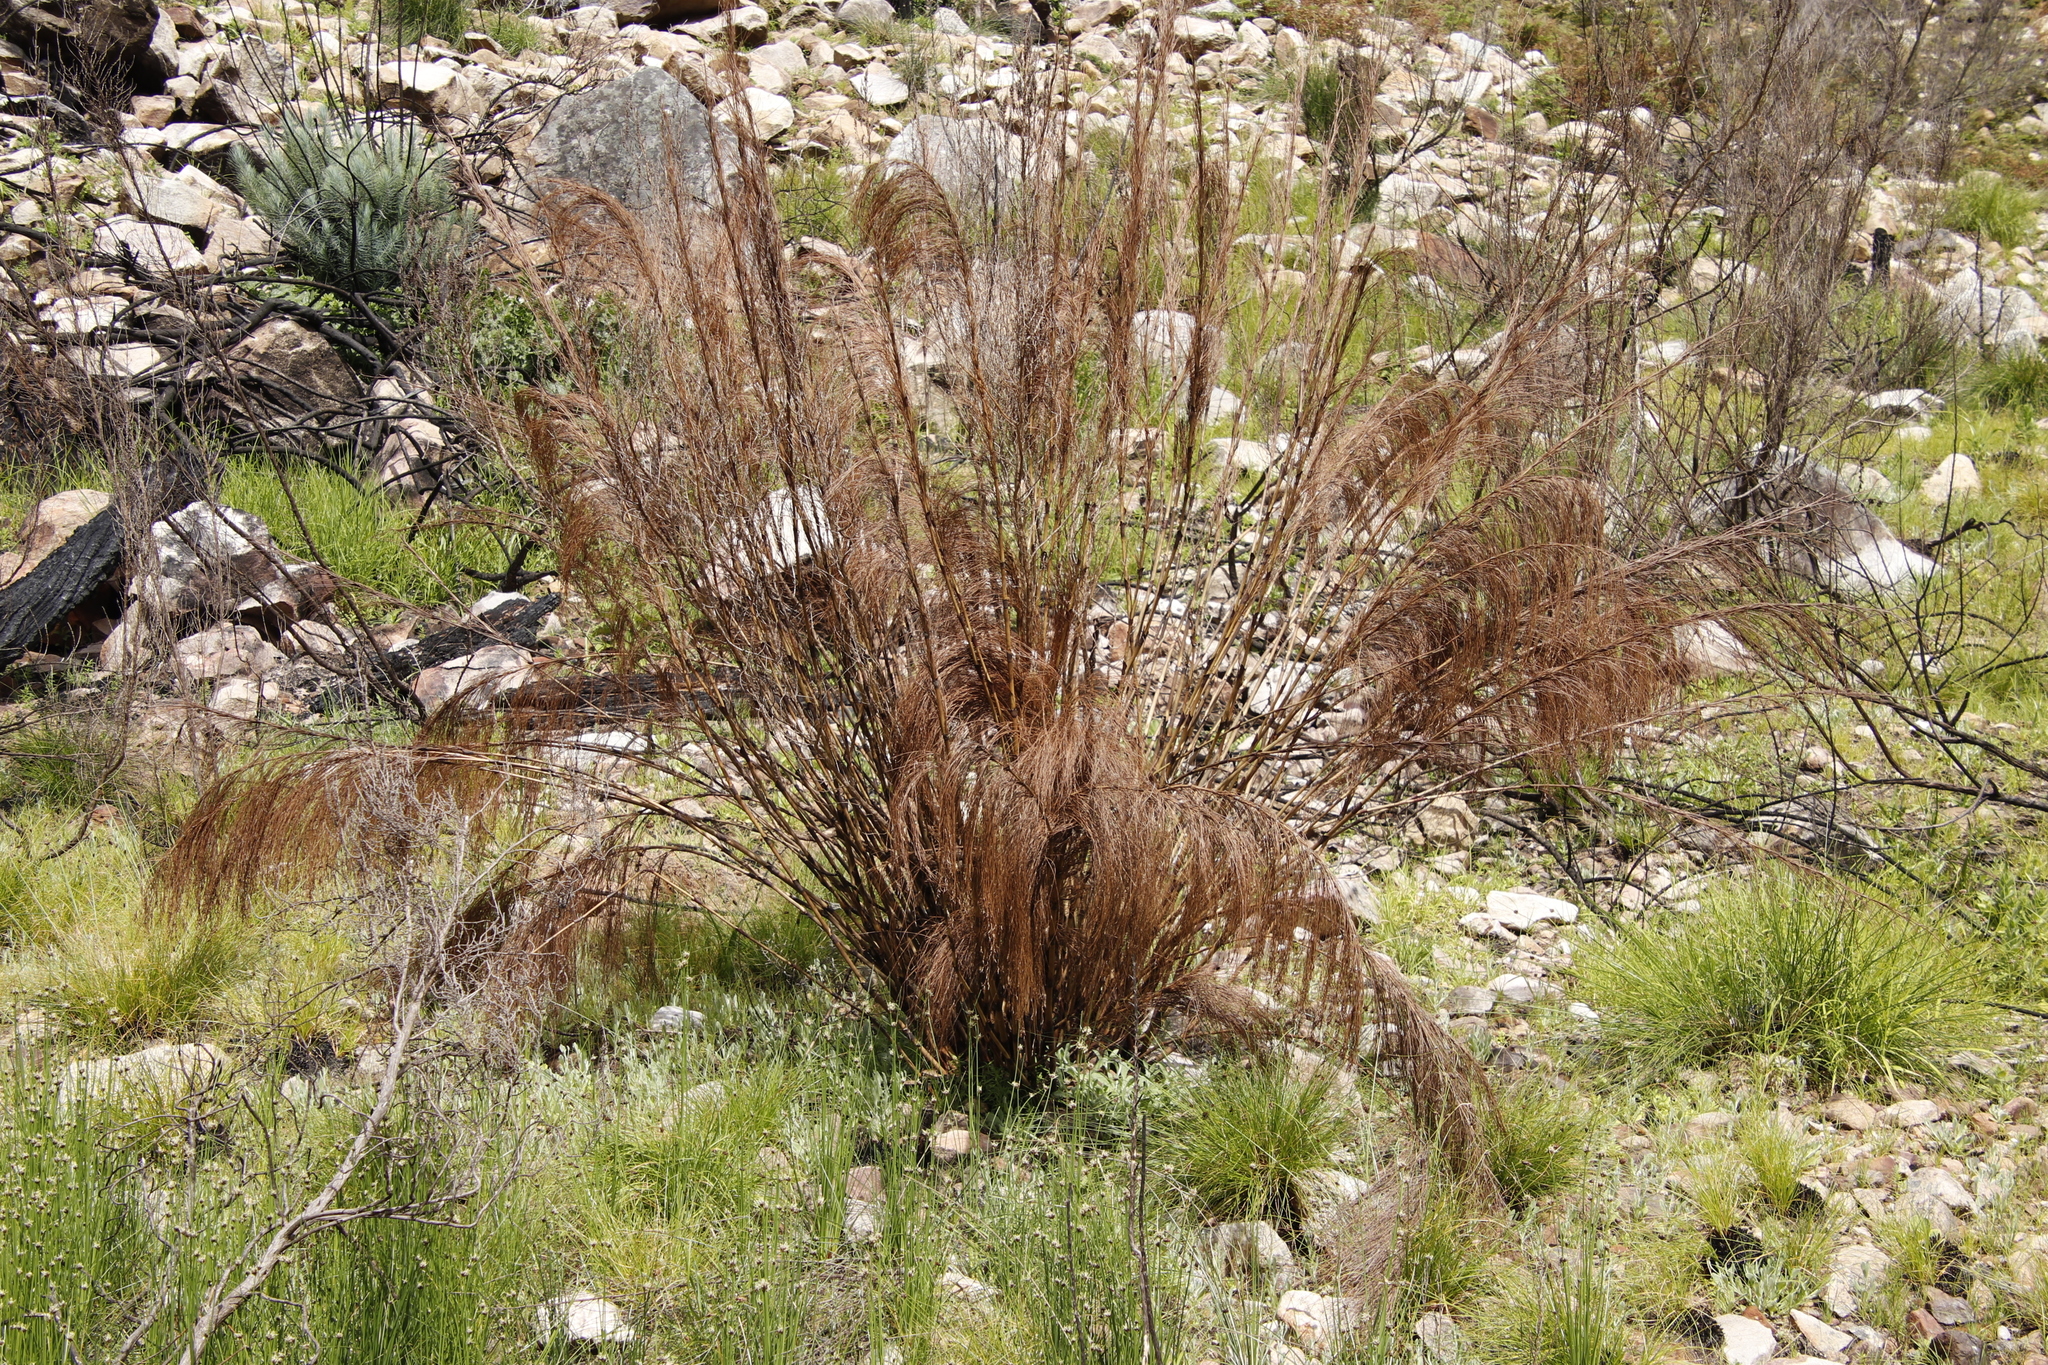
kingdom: Plantae
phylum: Tracheophyta
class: Liliopsida
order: Poales
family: Restionaceae
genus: Cannomois
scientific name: Cannomois grandis
